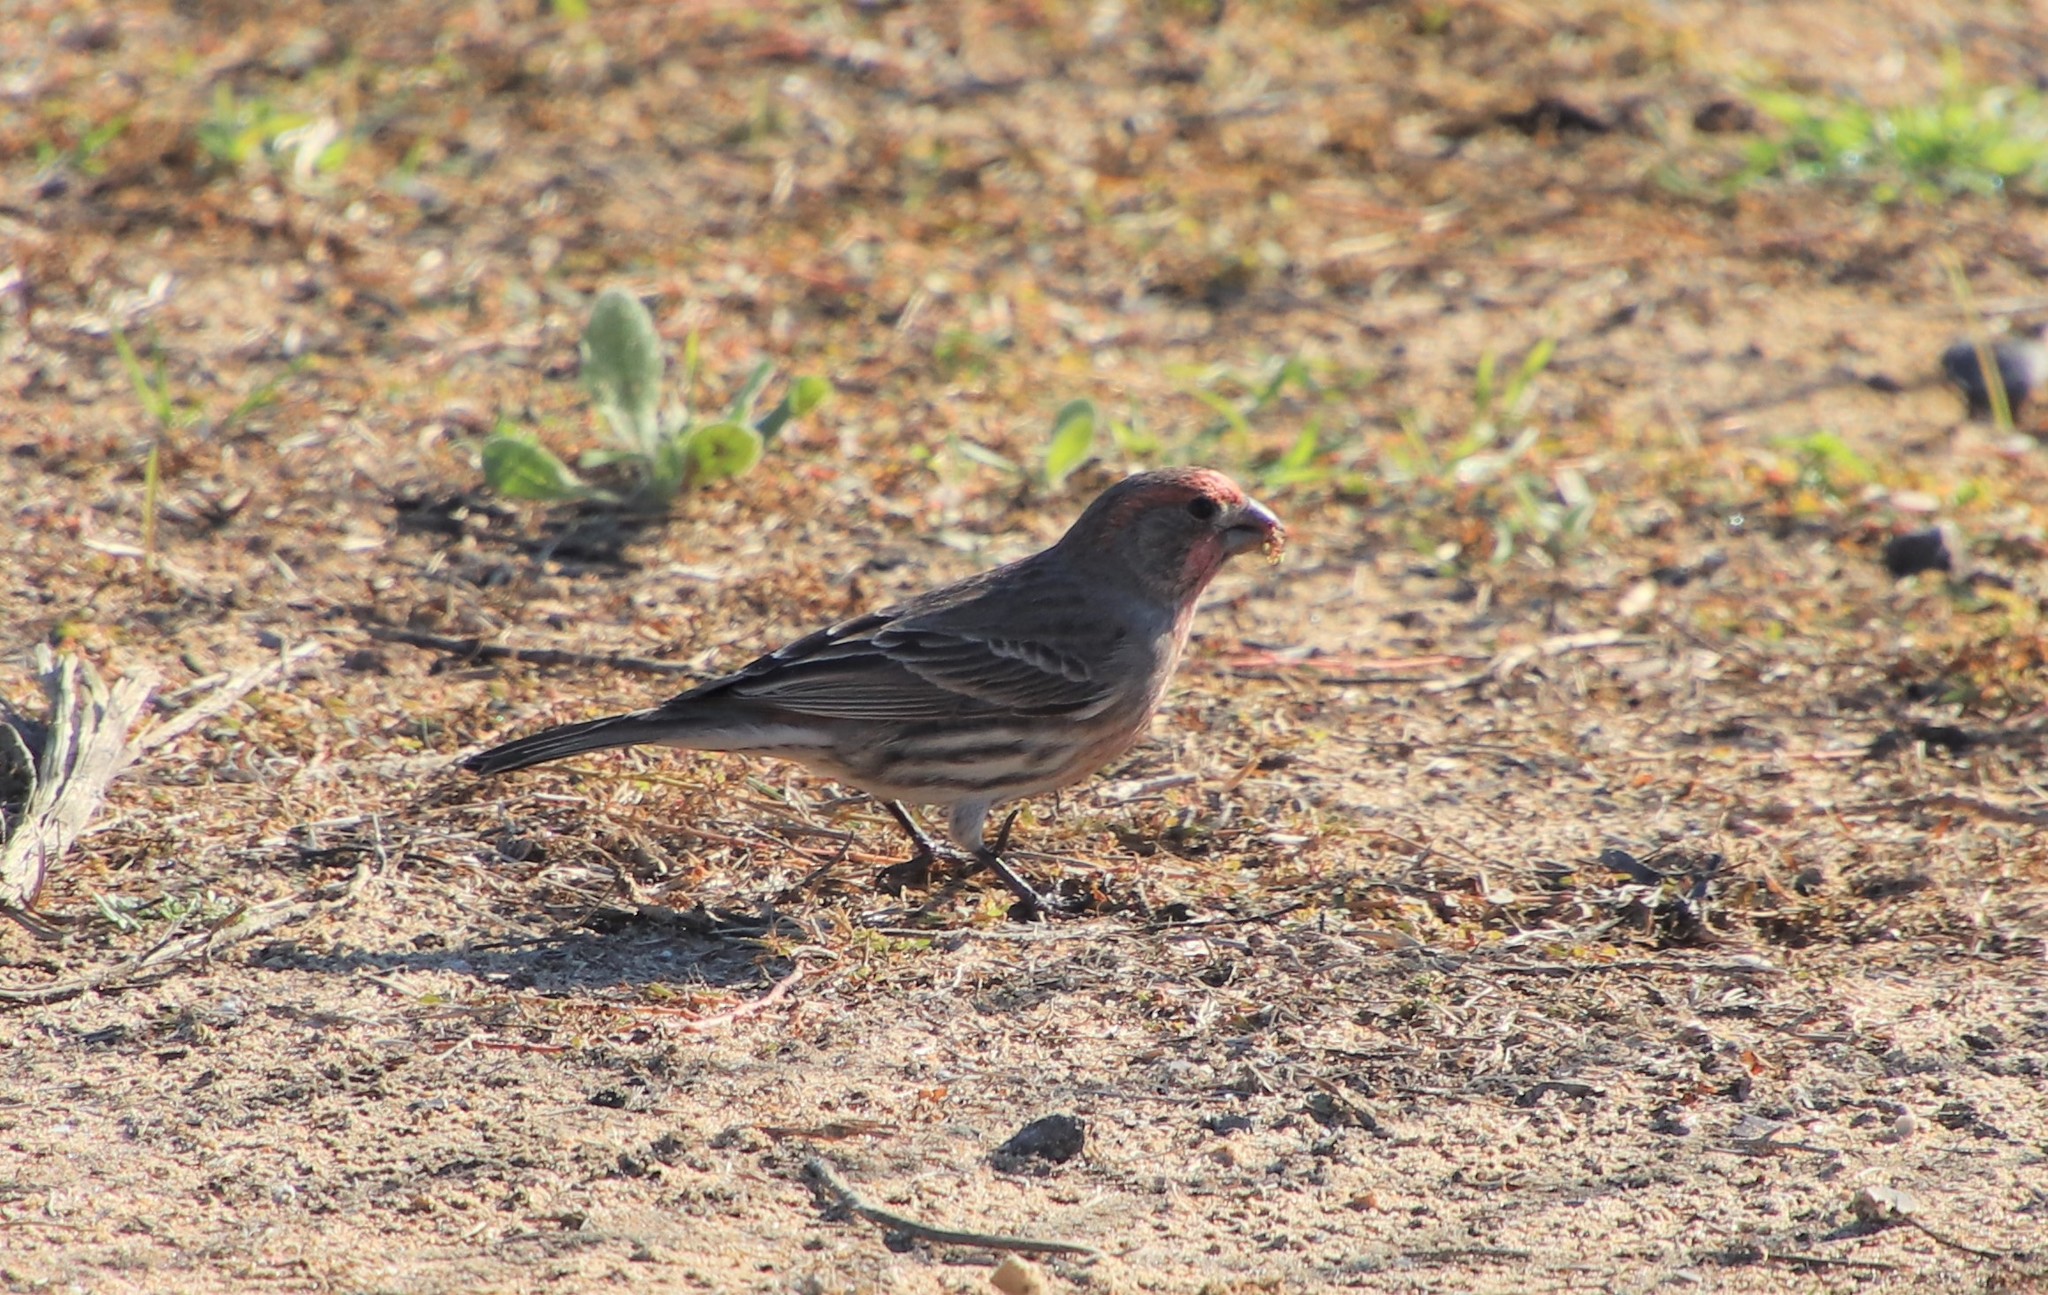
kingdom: Animalia
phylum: Chordata
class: Aves
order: Passeriformes
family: Fringillidae
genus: Haemorhous
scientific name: Haemorhous mexicanus
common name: House finch
